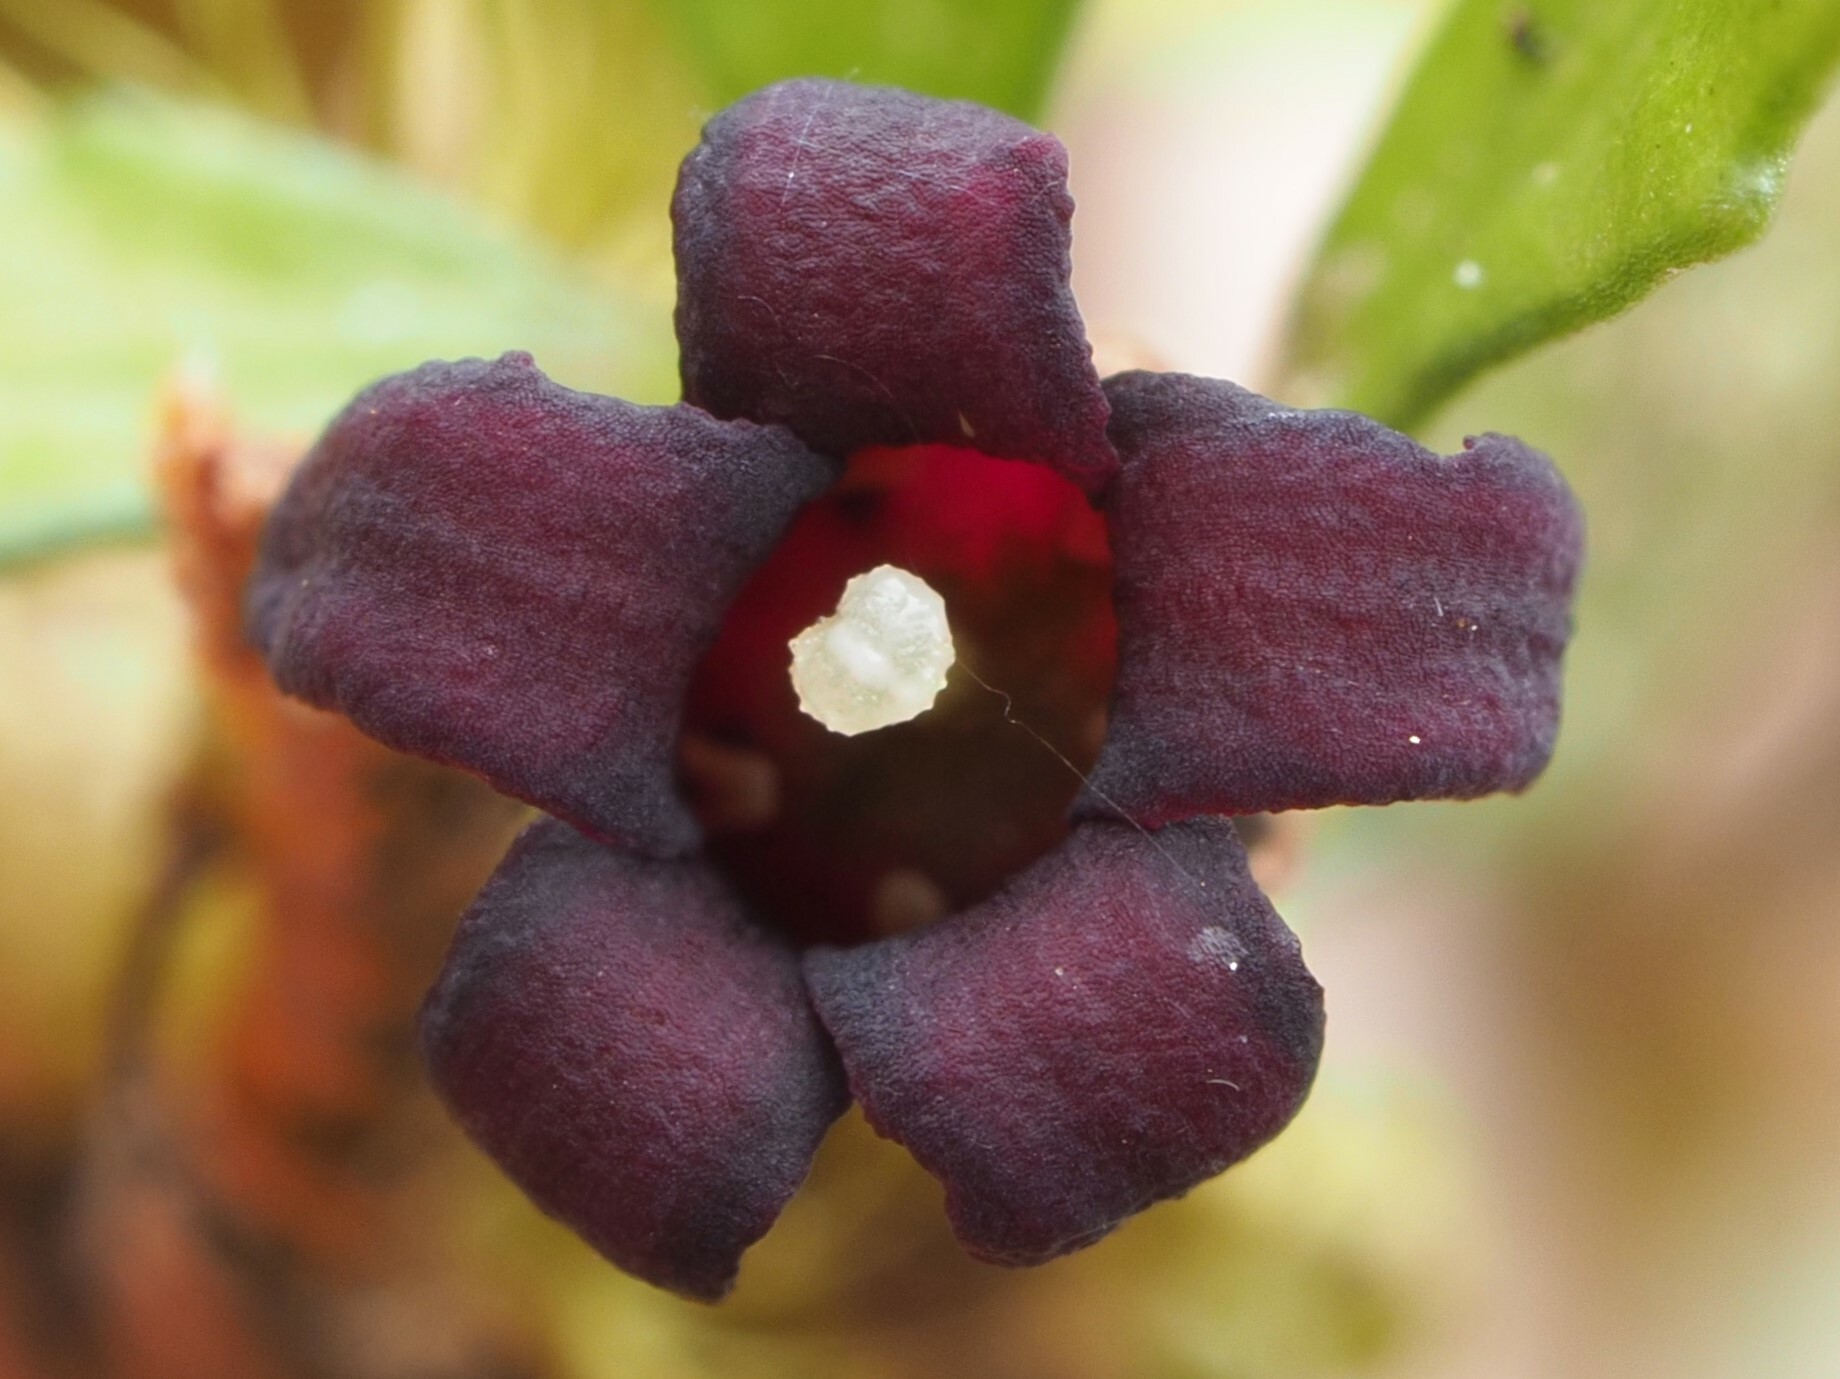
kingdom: Plantae
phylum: Tracheophyta
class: Magnoliopsida
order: Apiales
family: Pittosporaceae
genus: Pittosporum
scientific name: Pittosporum divaricatum
